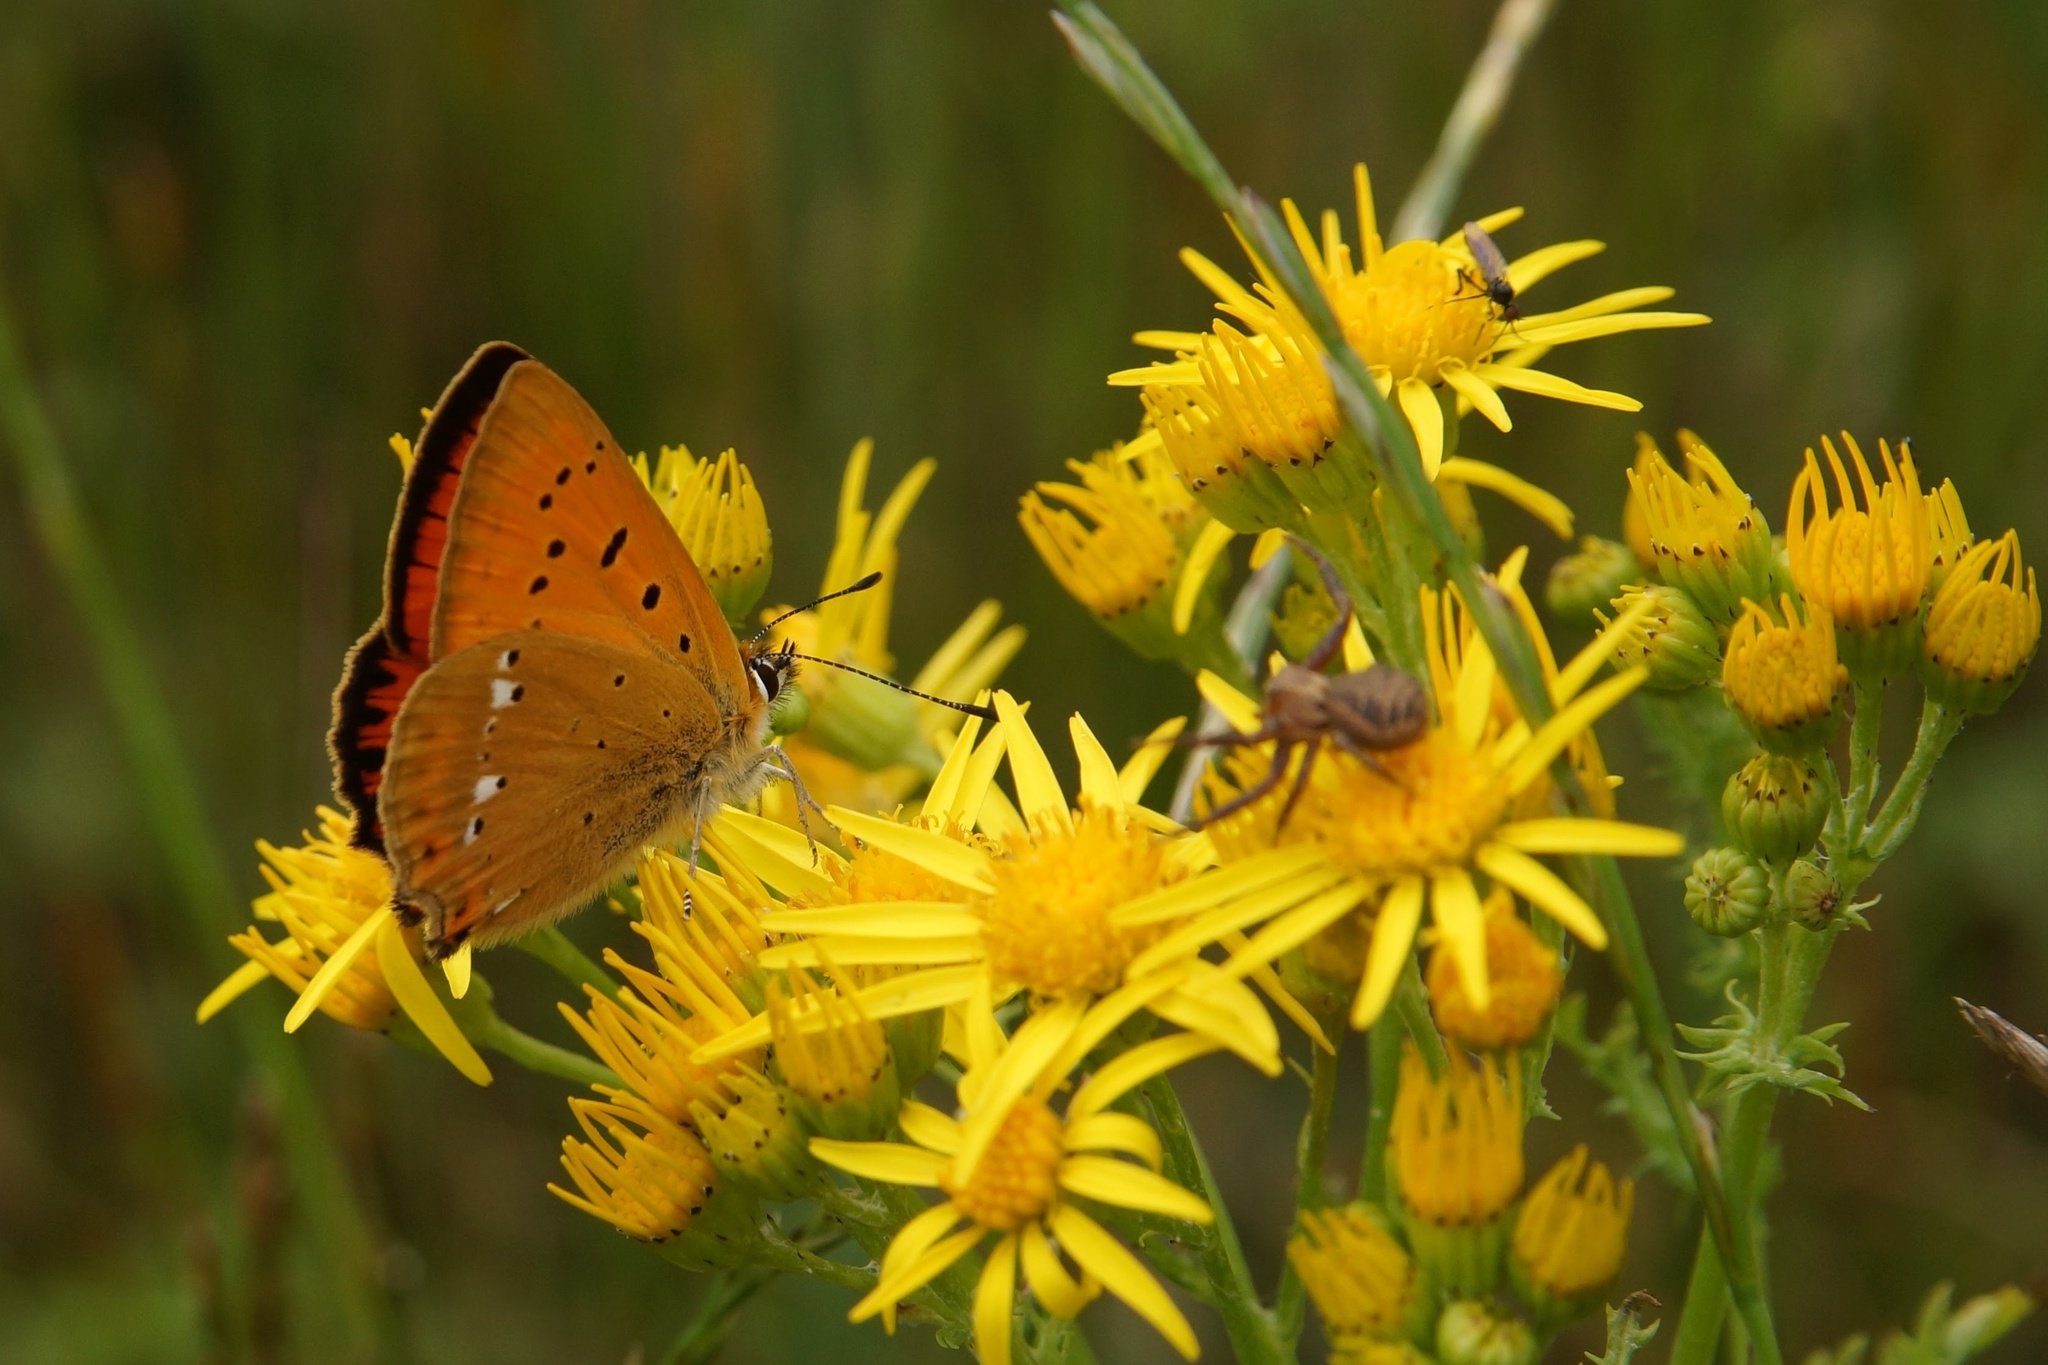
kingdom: Animalia
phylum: Arthropoda
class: Insecta
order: Lepidoptera
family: Lycaenidae
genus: Lycaena
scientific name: Lycaena virgaureae
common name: Scarce copper
